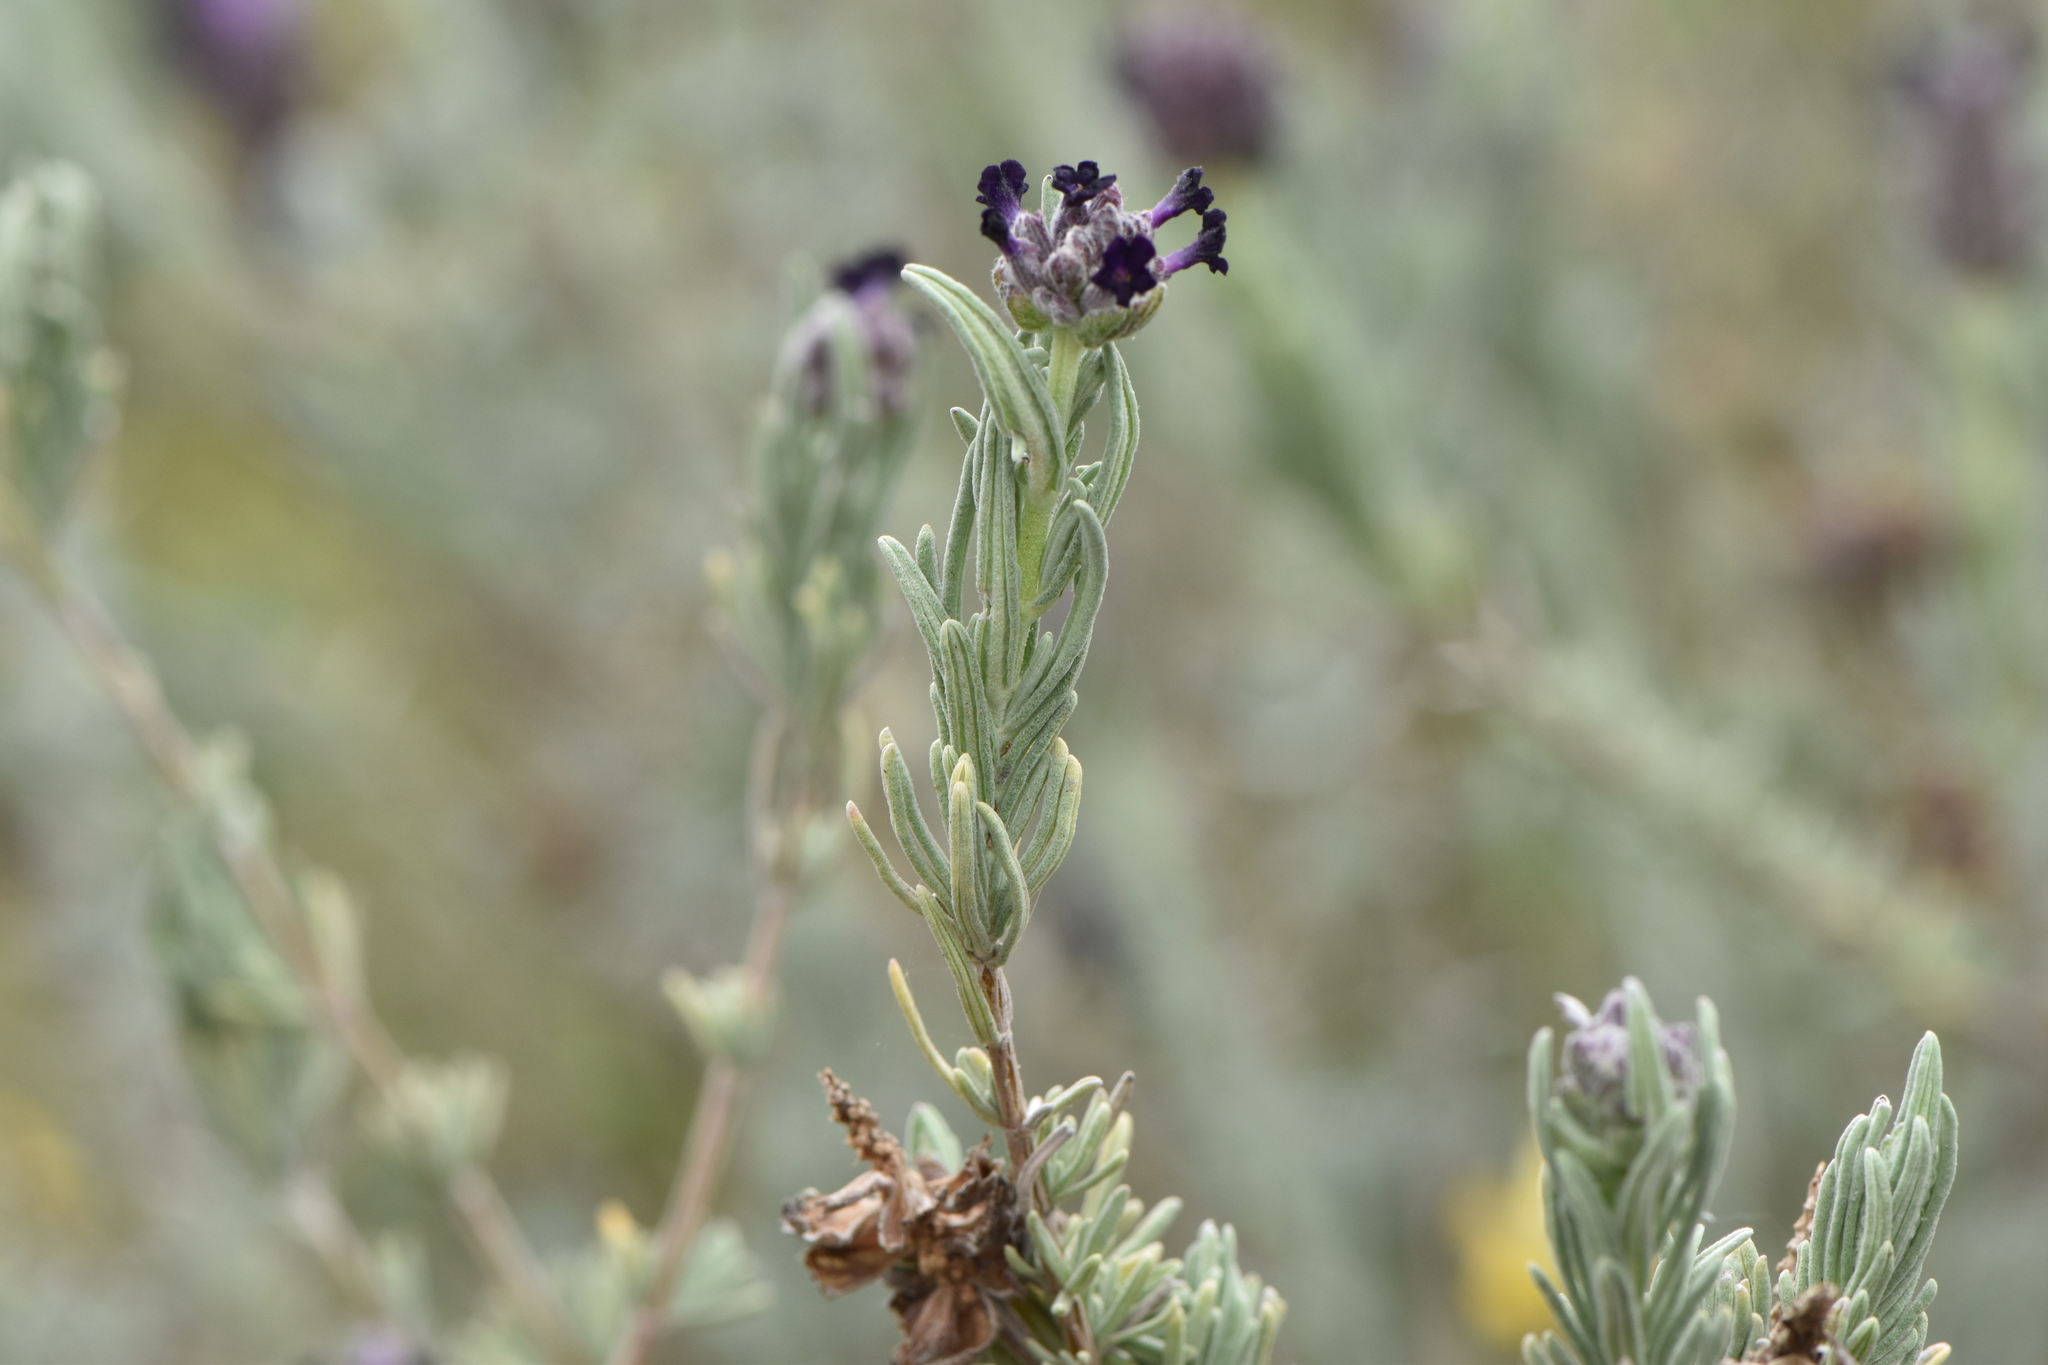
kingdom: Plantae
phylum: Tracheophyta
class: Magnoliopsida
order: Lamiales
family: Lamiaceae
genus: Lavandula
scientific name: Lavandula stoechas
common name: French lavender
